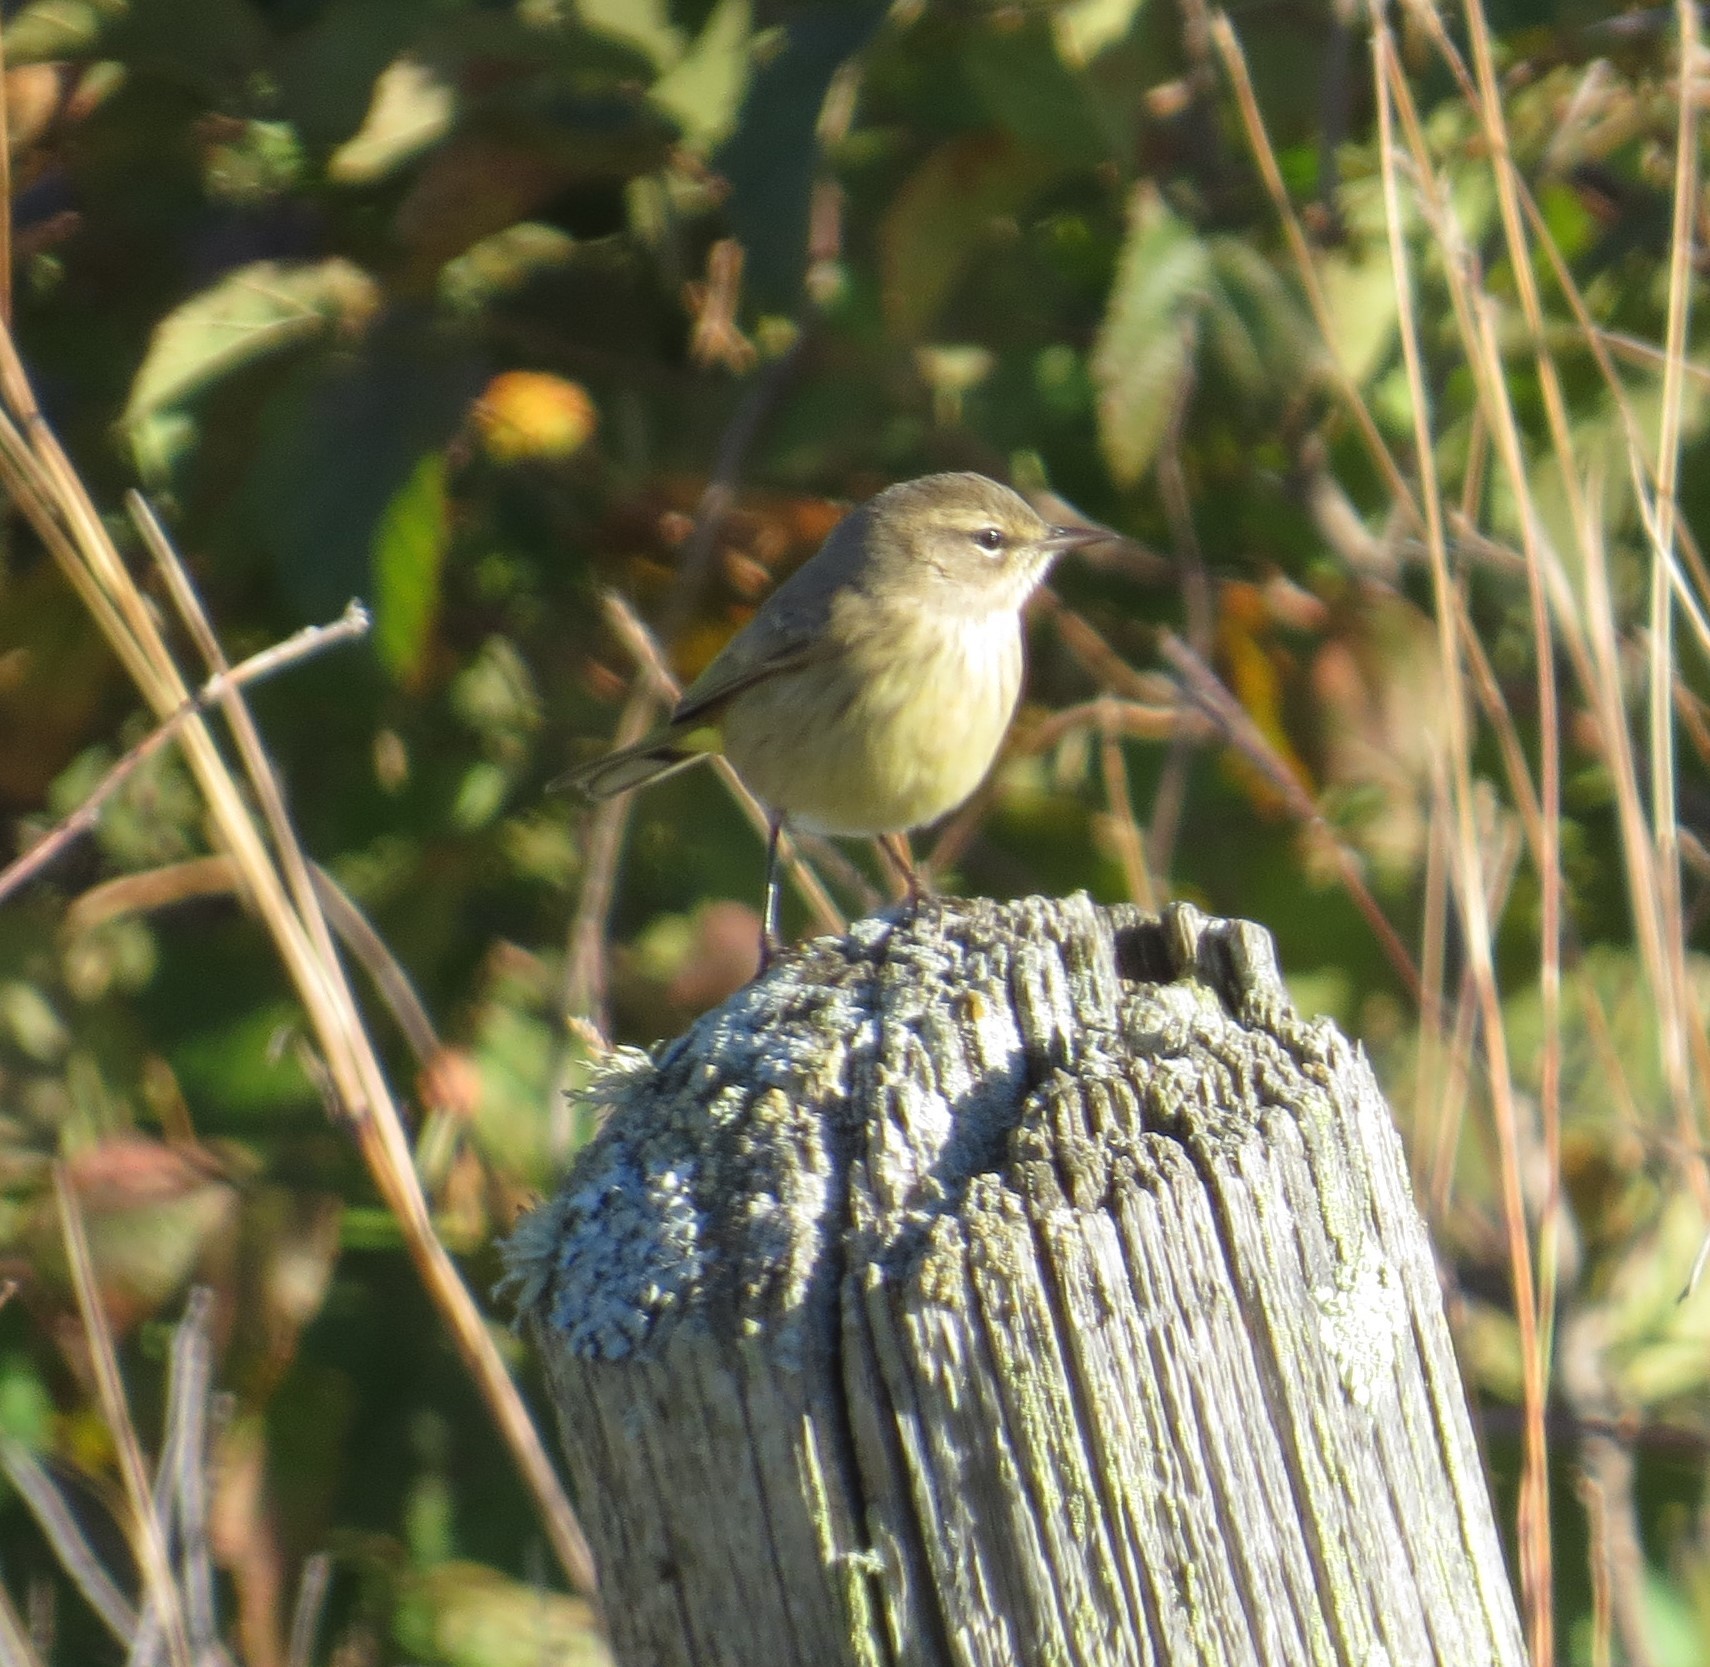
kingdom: Animalia
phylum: Chordata
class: Aves
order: Passeriformes
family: Parulidae
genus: Setophaga
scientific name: Setophaga palmarum
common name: Palm warbler
